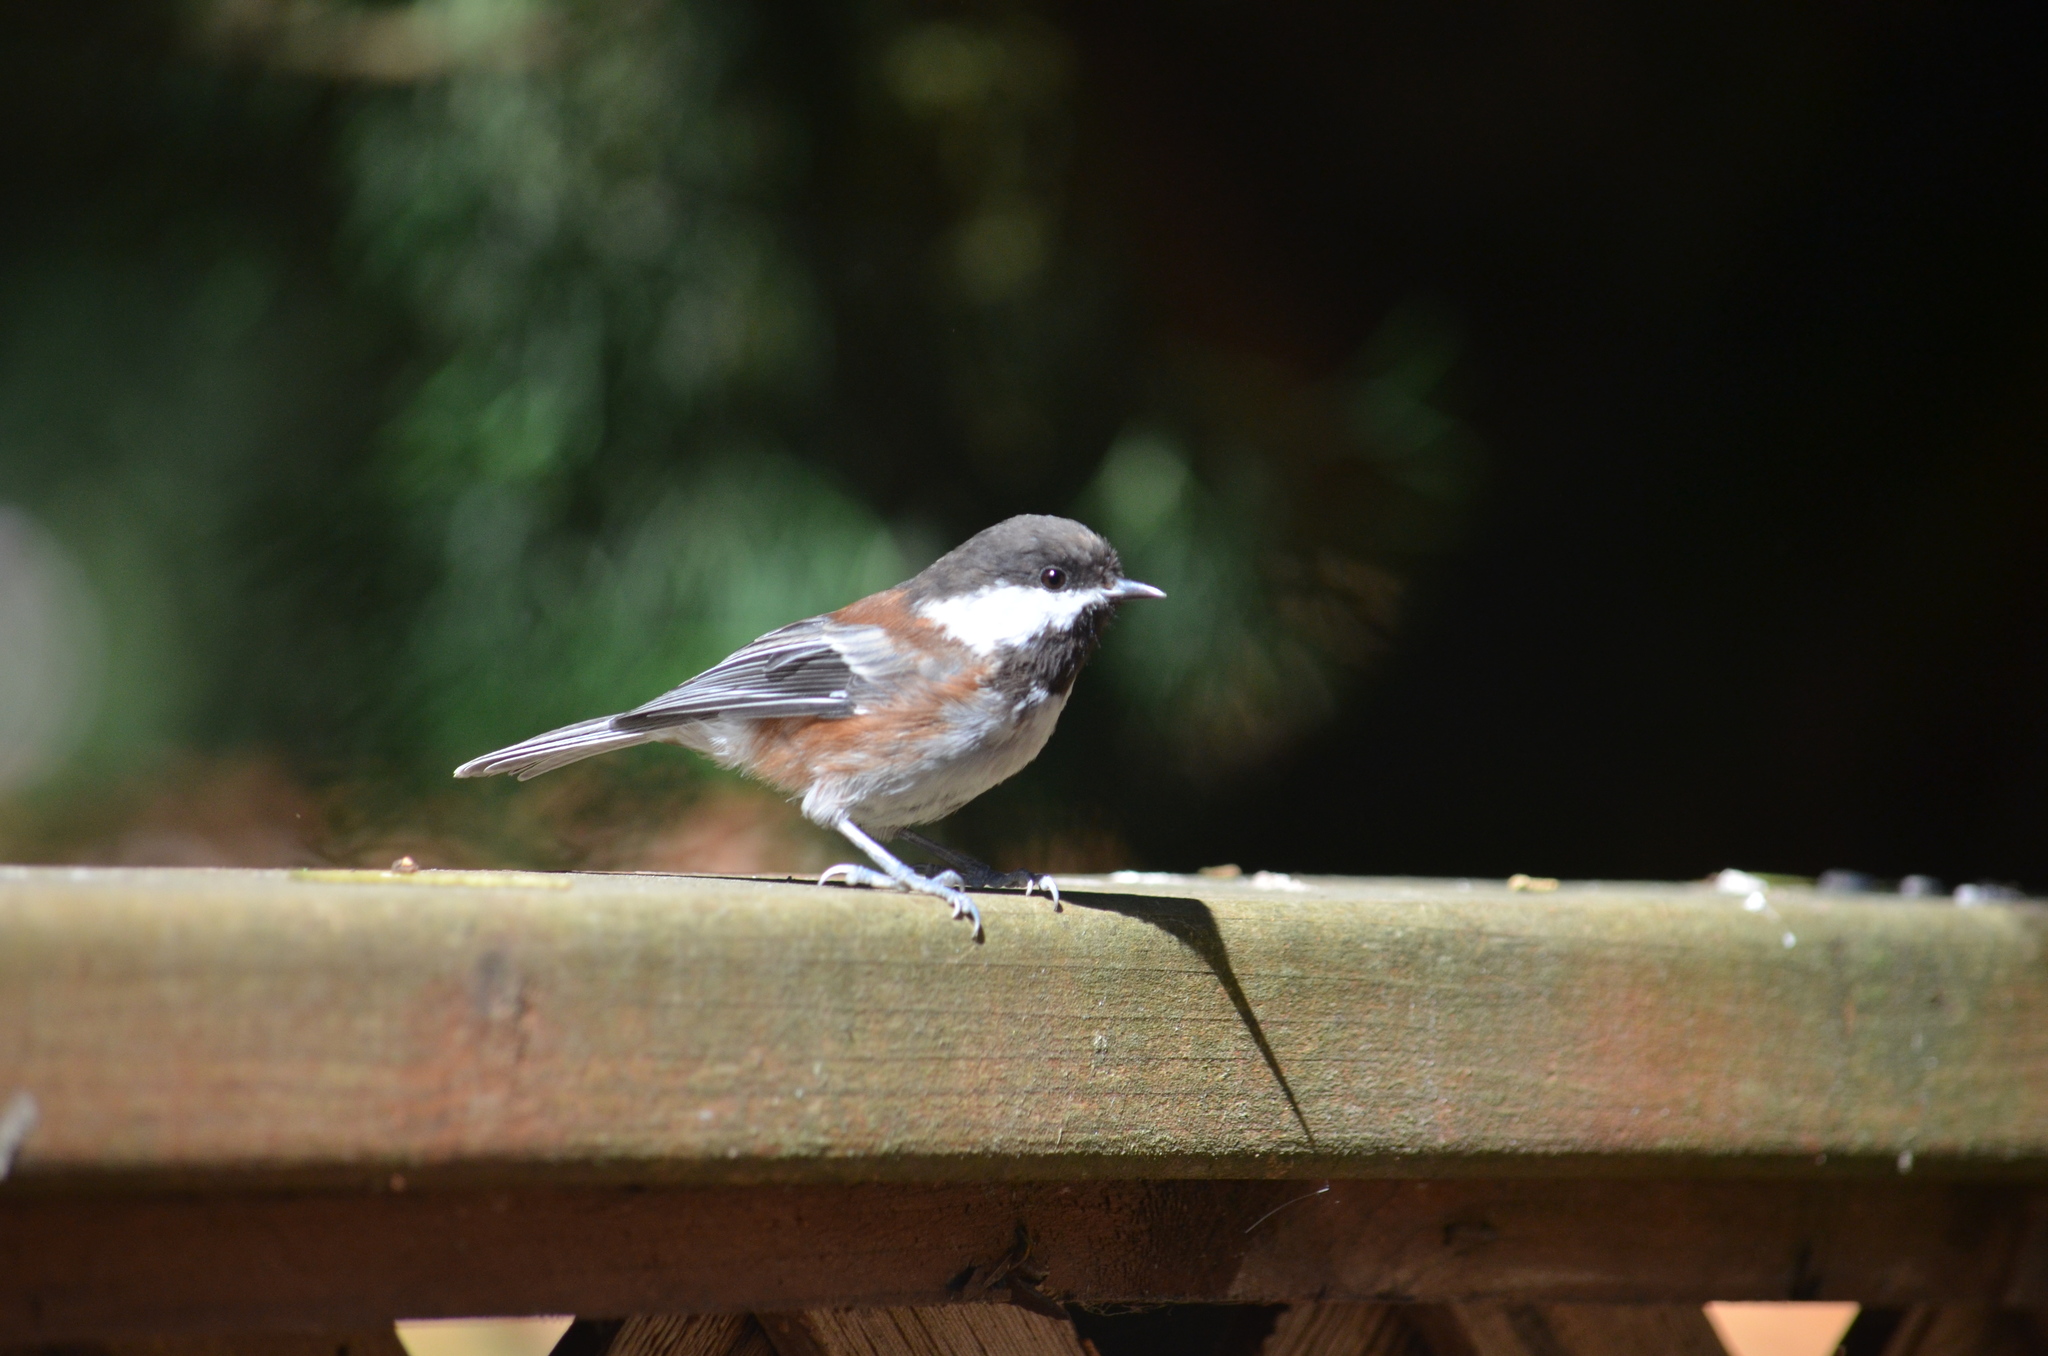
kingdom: Animalia
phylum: Chordata
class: Aves
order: Passeriformes
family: Paridae
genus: Poecile
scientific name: Poecile rufescens
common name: Chestnut-backed chickadee
